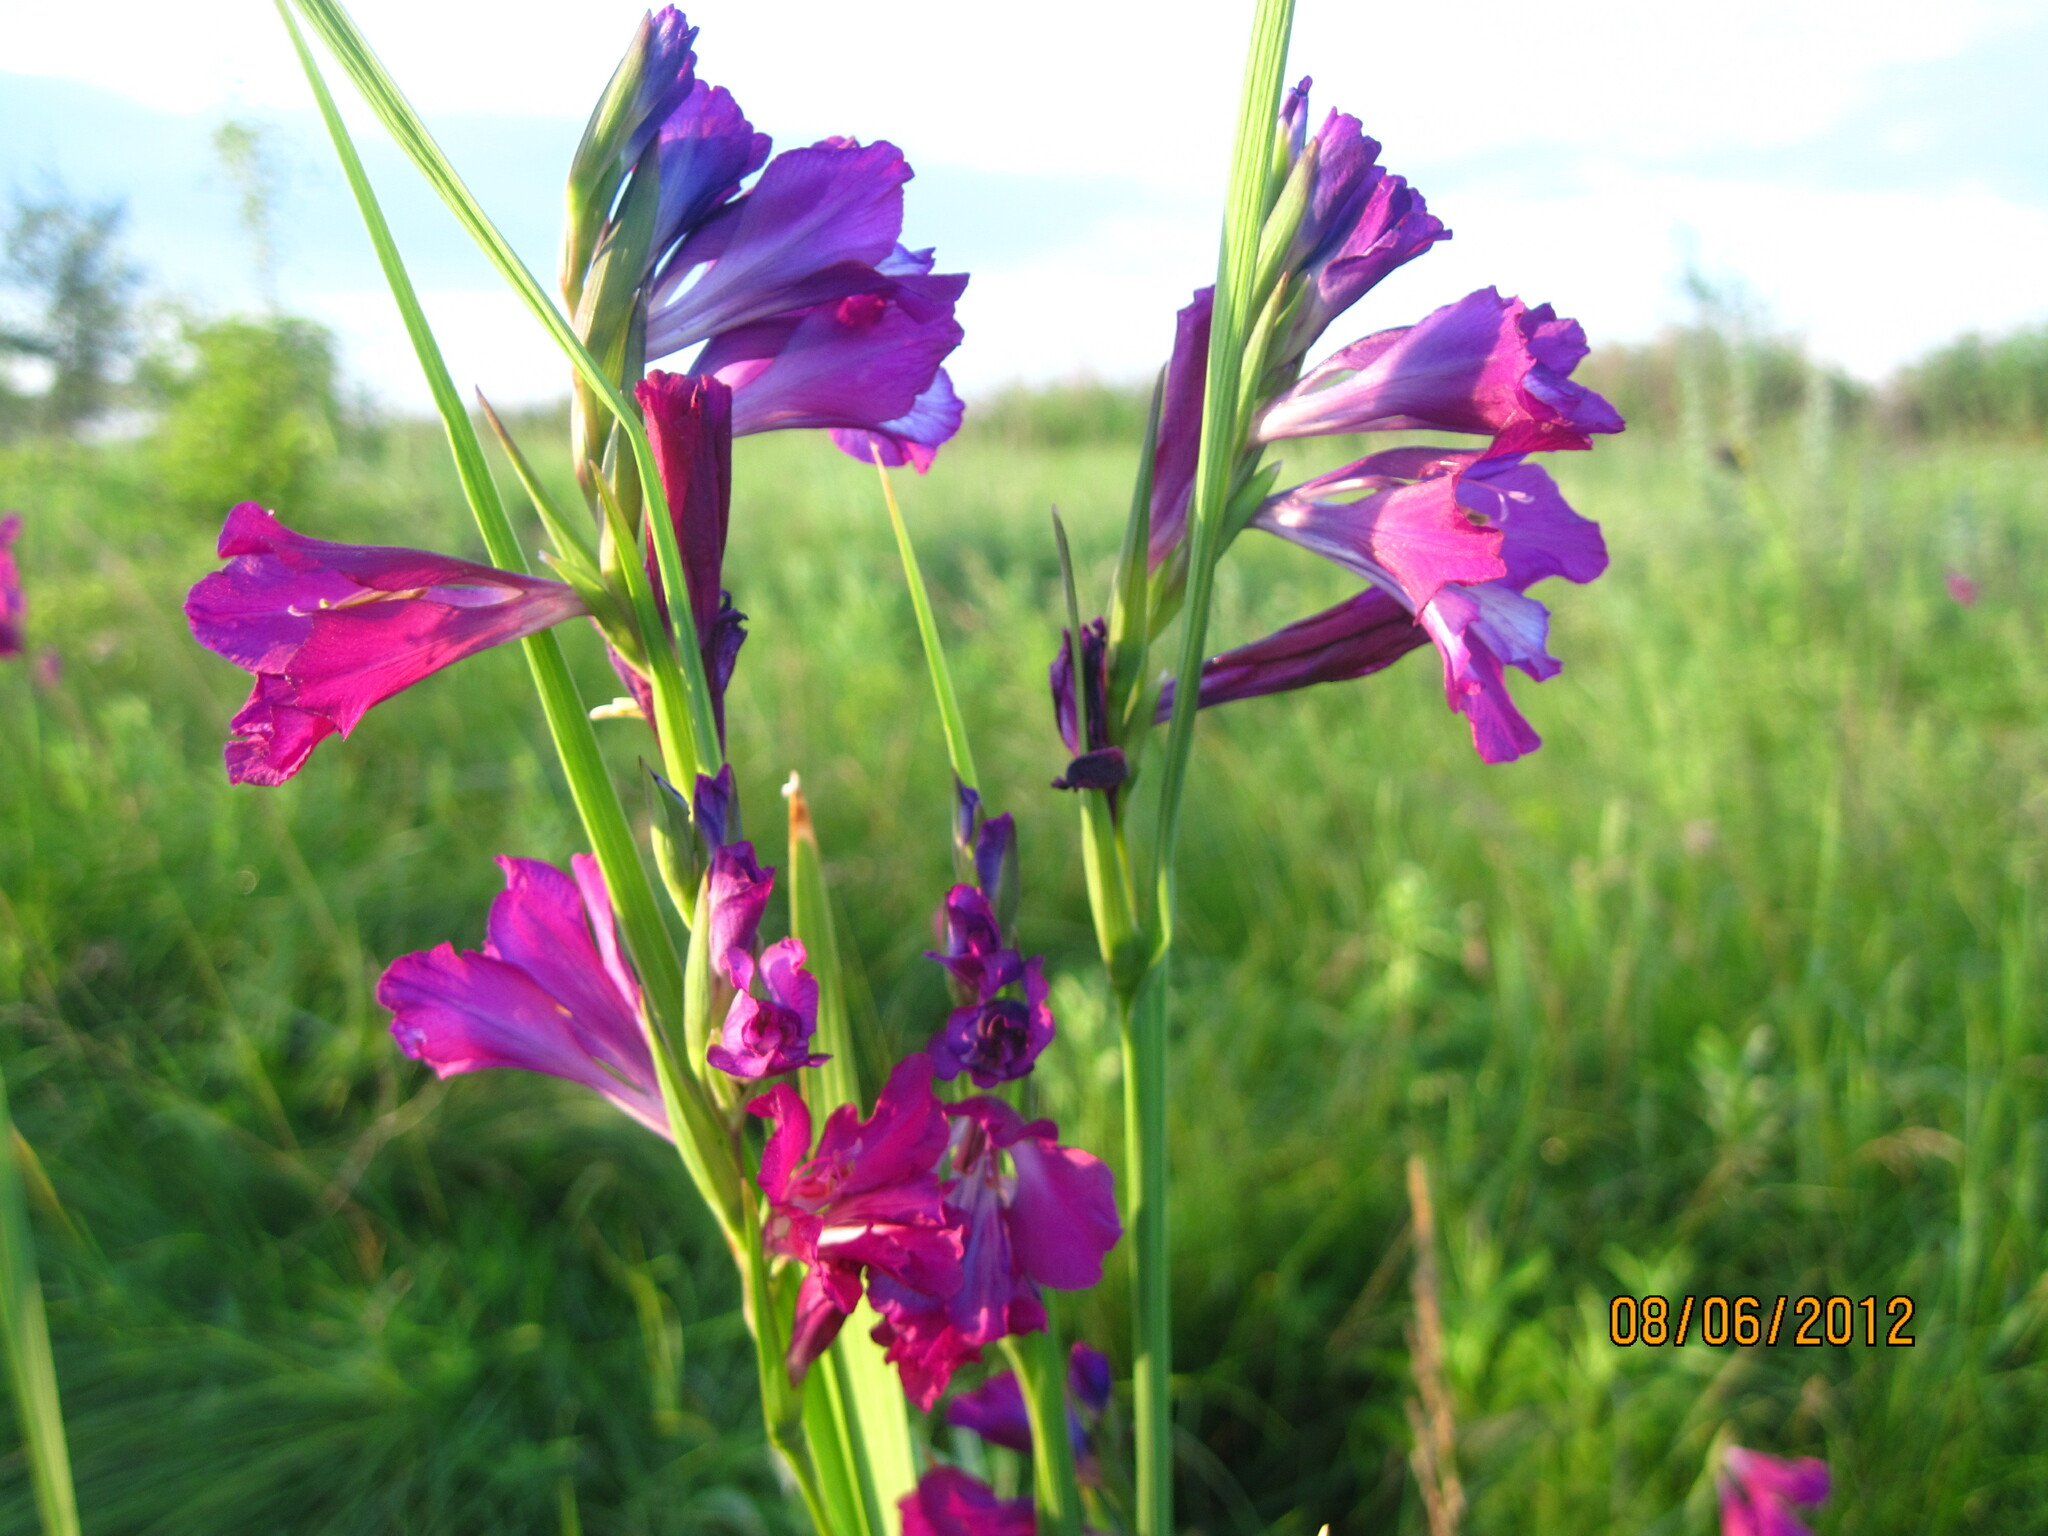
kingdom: Plantae
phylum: Tracheophyta
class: Liliopsida
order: Asparagales
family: Iridaceae
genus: Gladiolus
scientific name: Gladiolus tenuis
